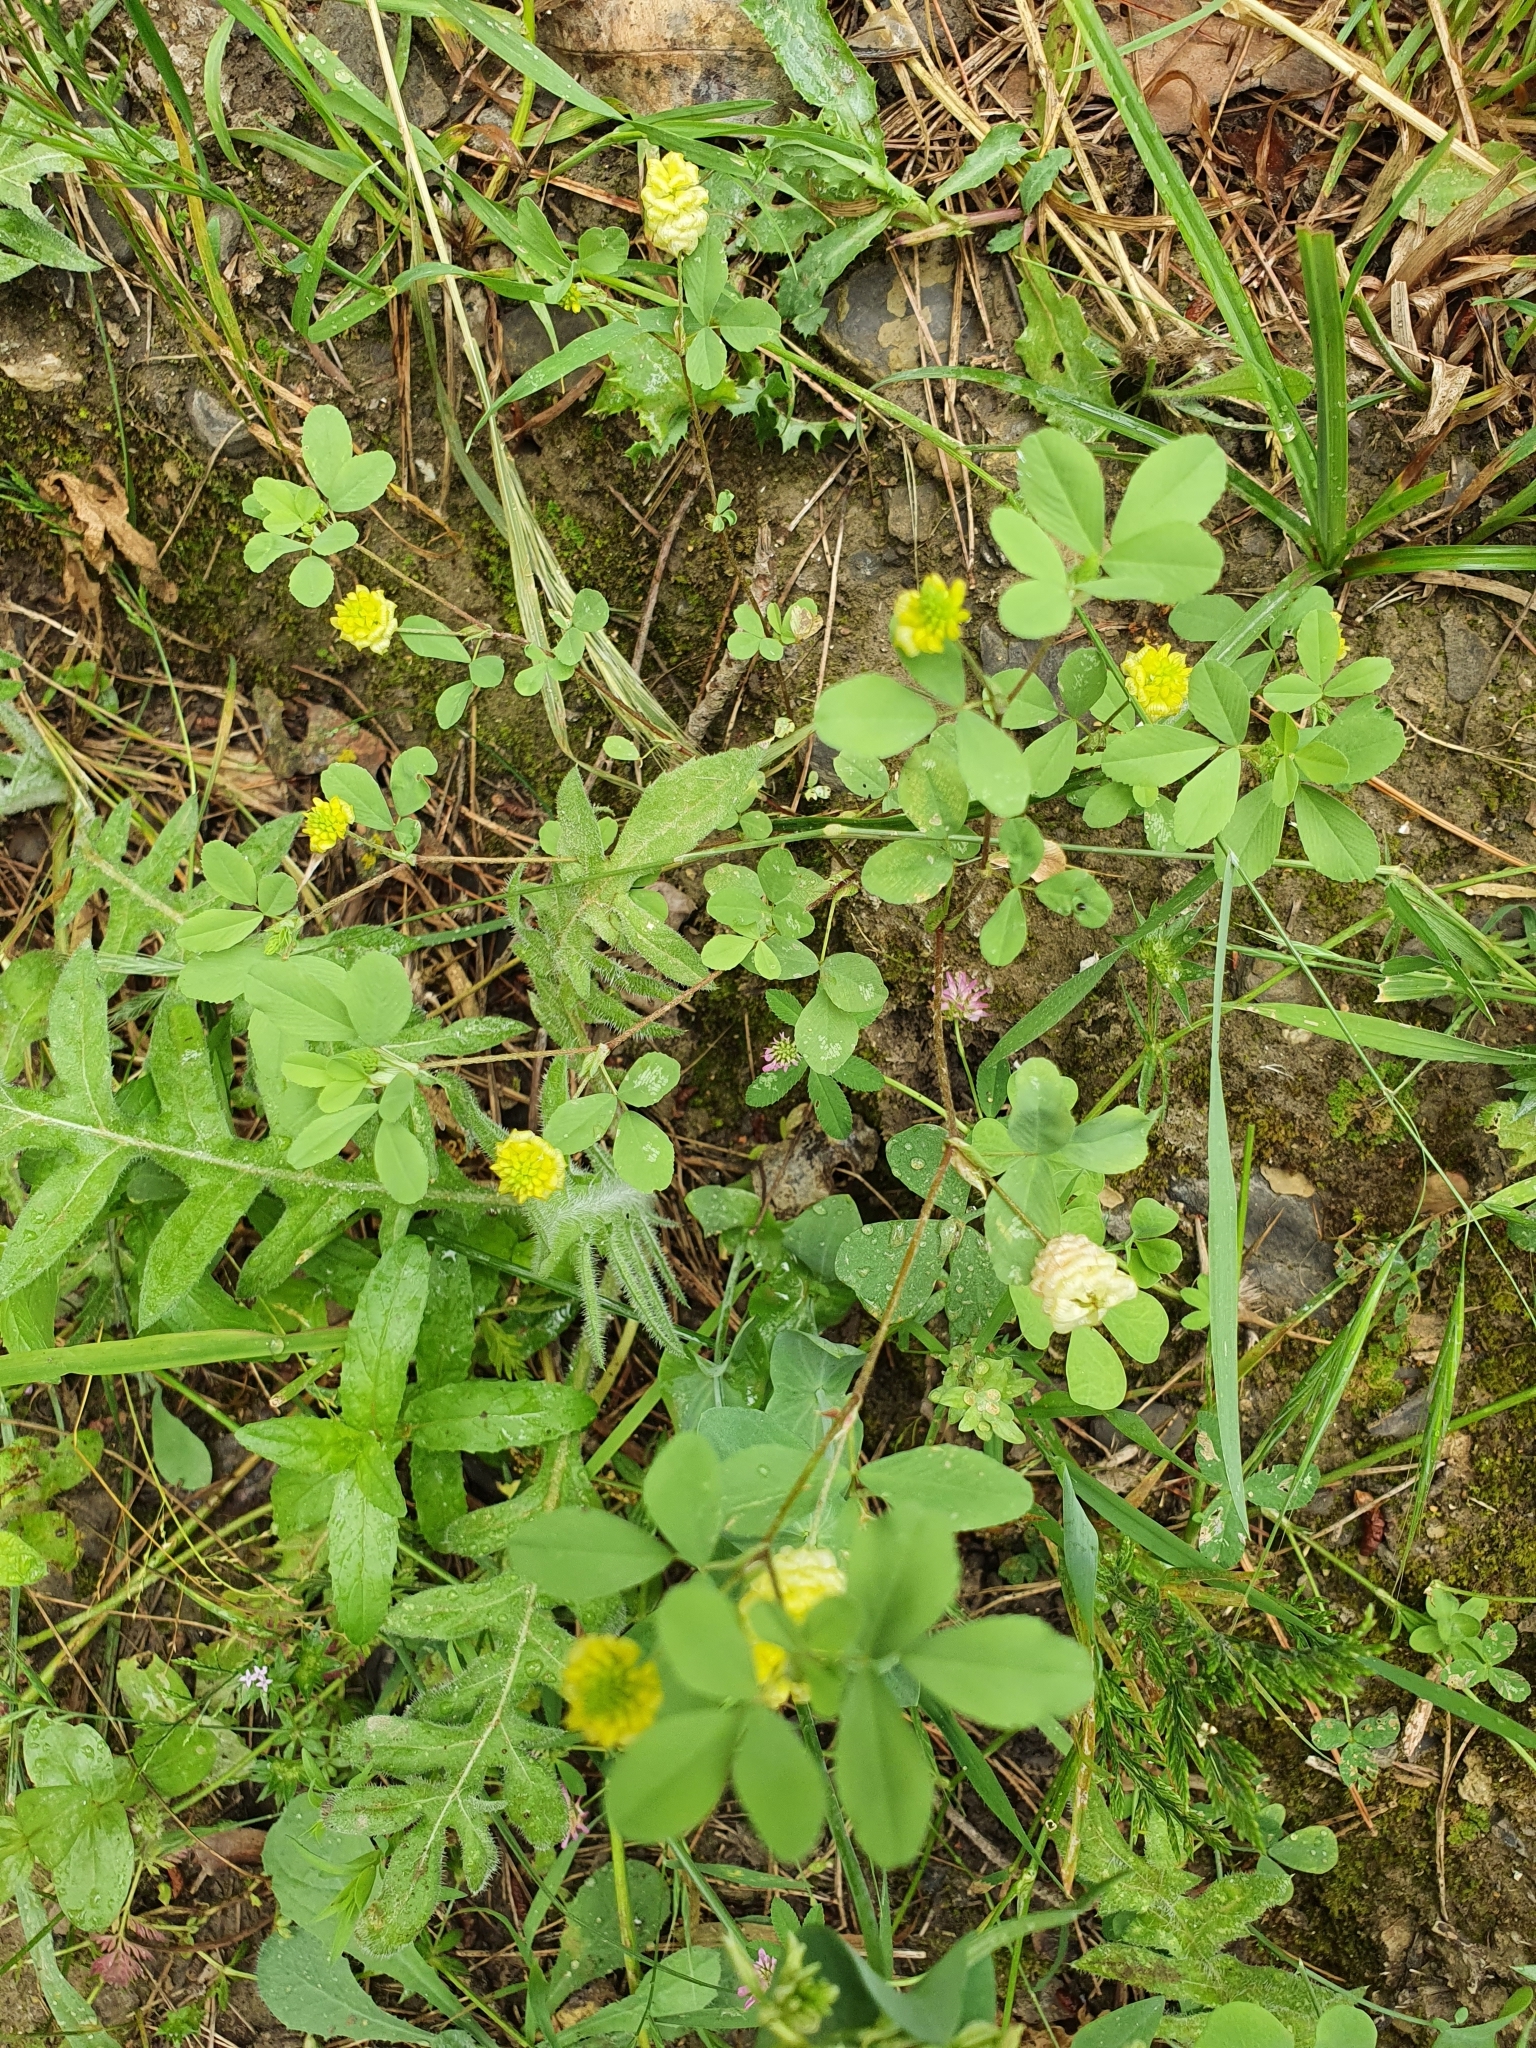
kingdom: Plantae
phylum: Tracheophyta
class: Magnoliopsida
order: Fabales
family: Fabaceae
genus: Trifolium
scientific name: Trifolium campestre
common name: Field clover
